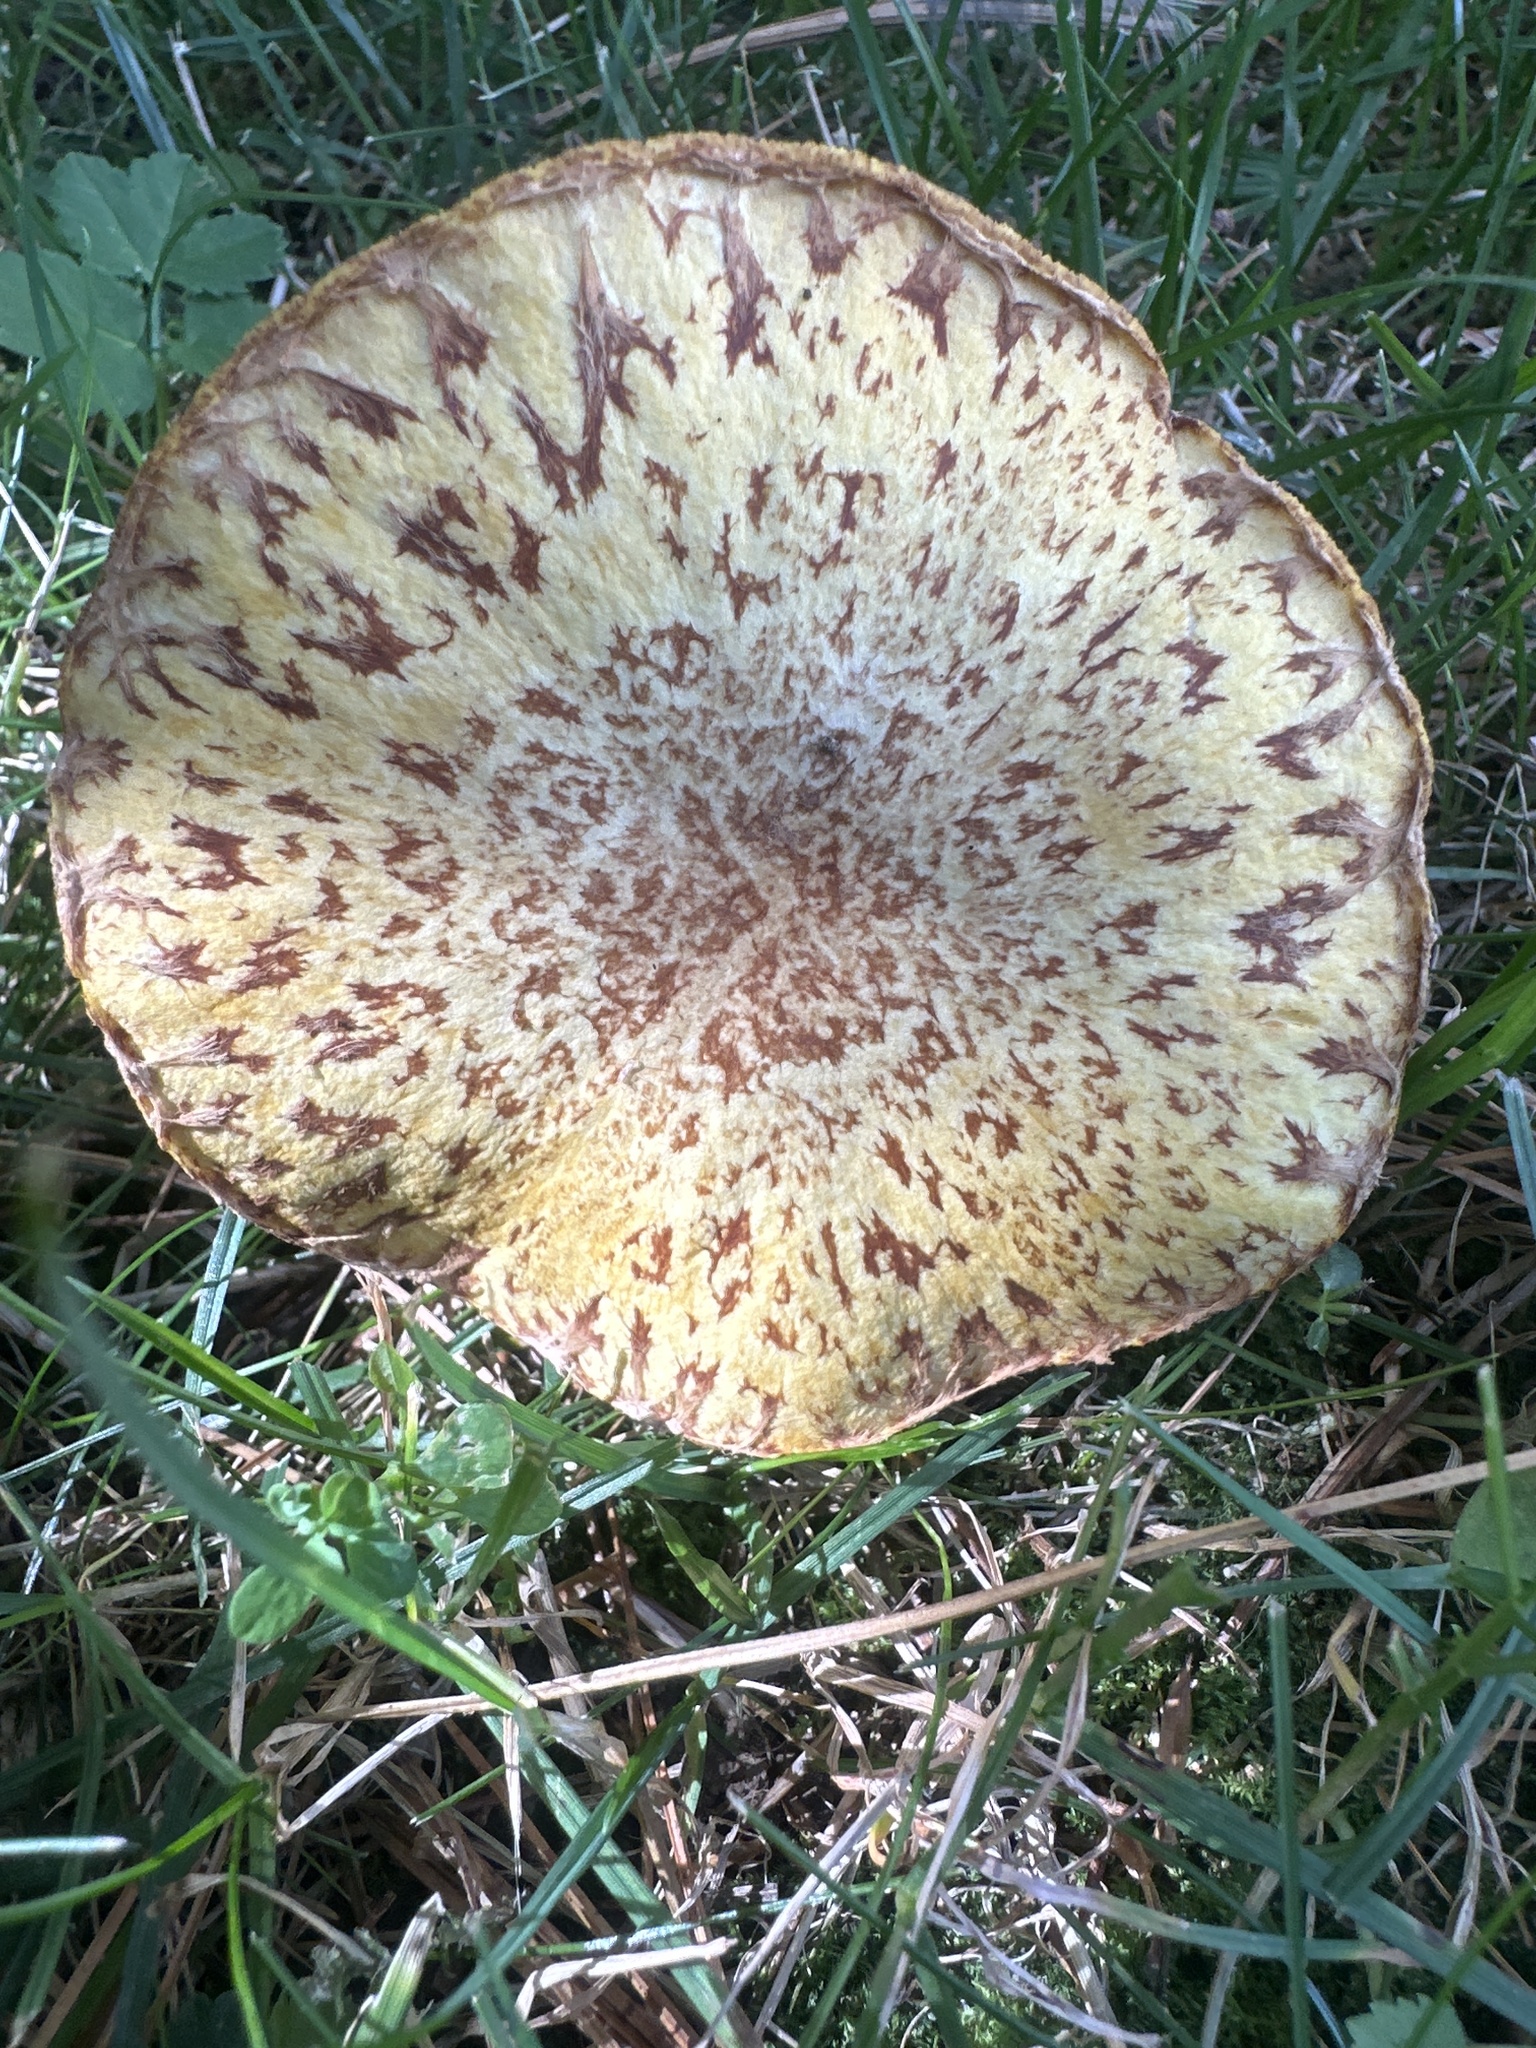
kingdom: Fungi
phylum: Basidiomycota
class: Agaricomycetes
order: Boletales
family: Suillaceae
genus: Suillus
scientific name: Suillus plorans
